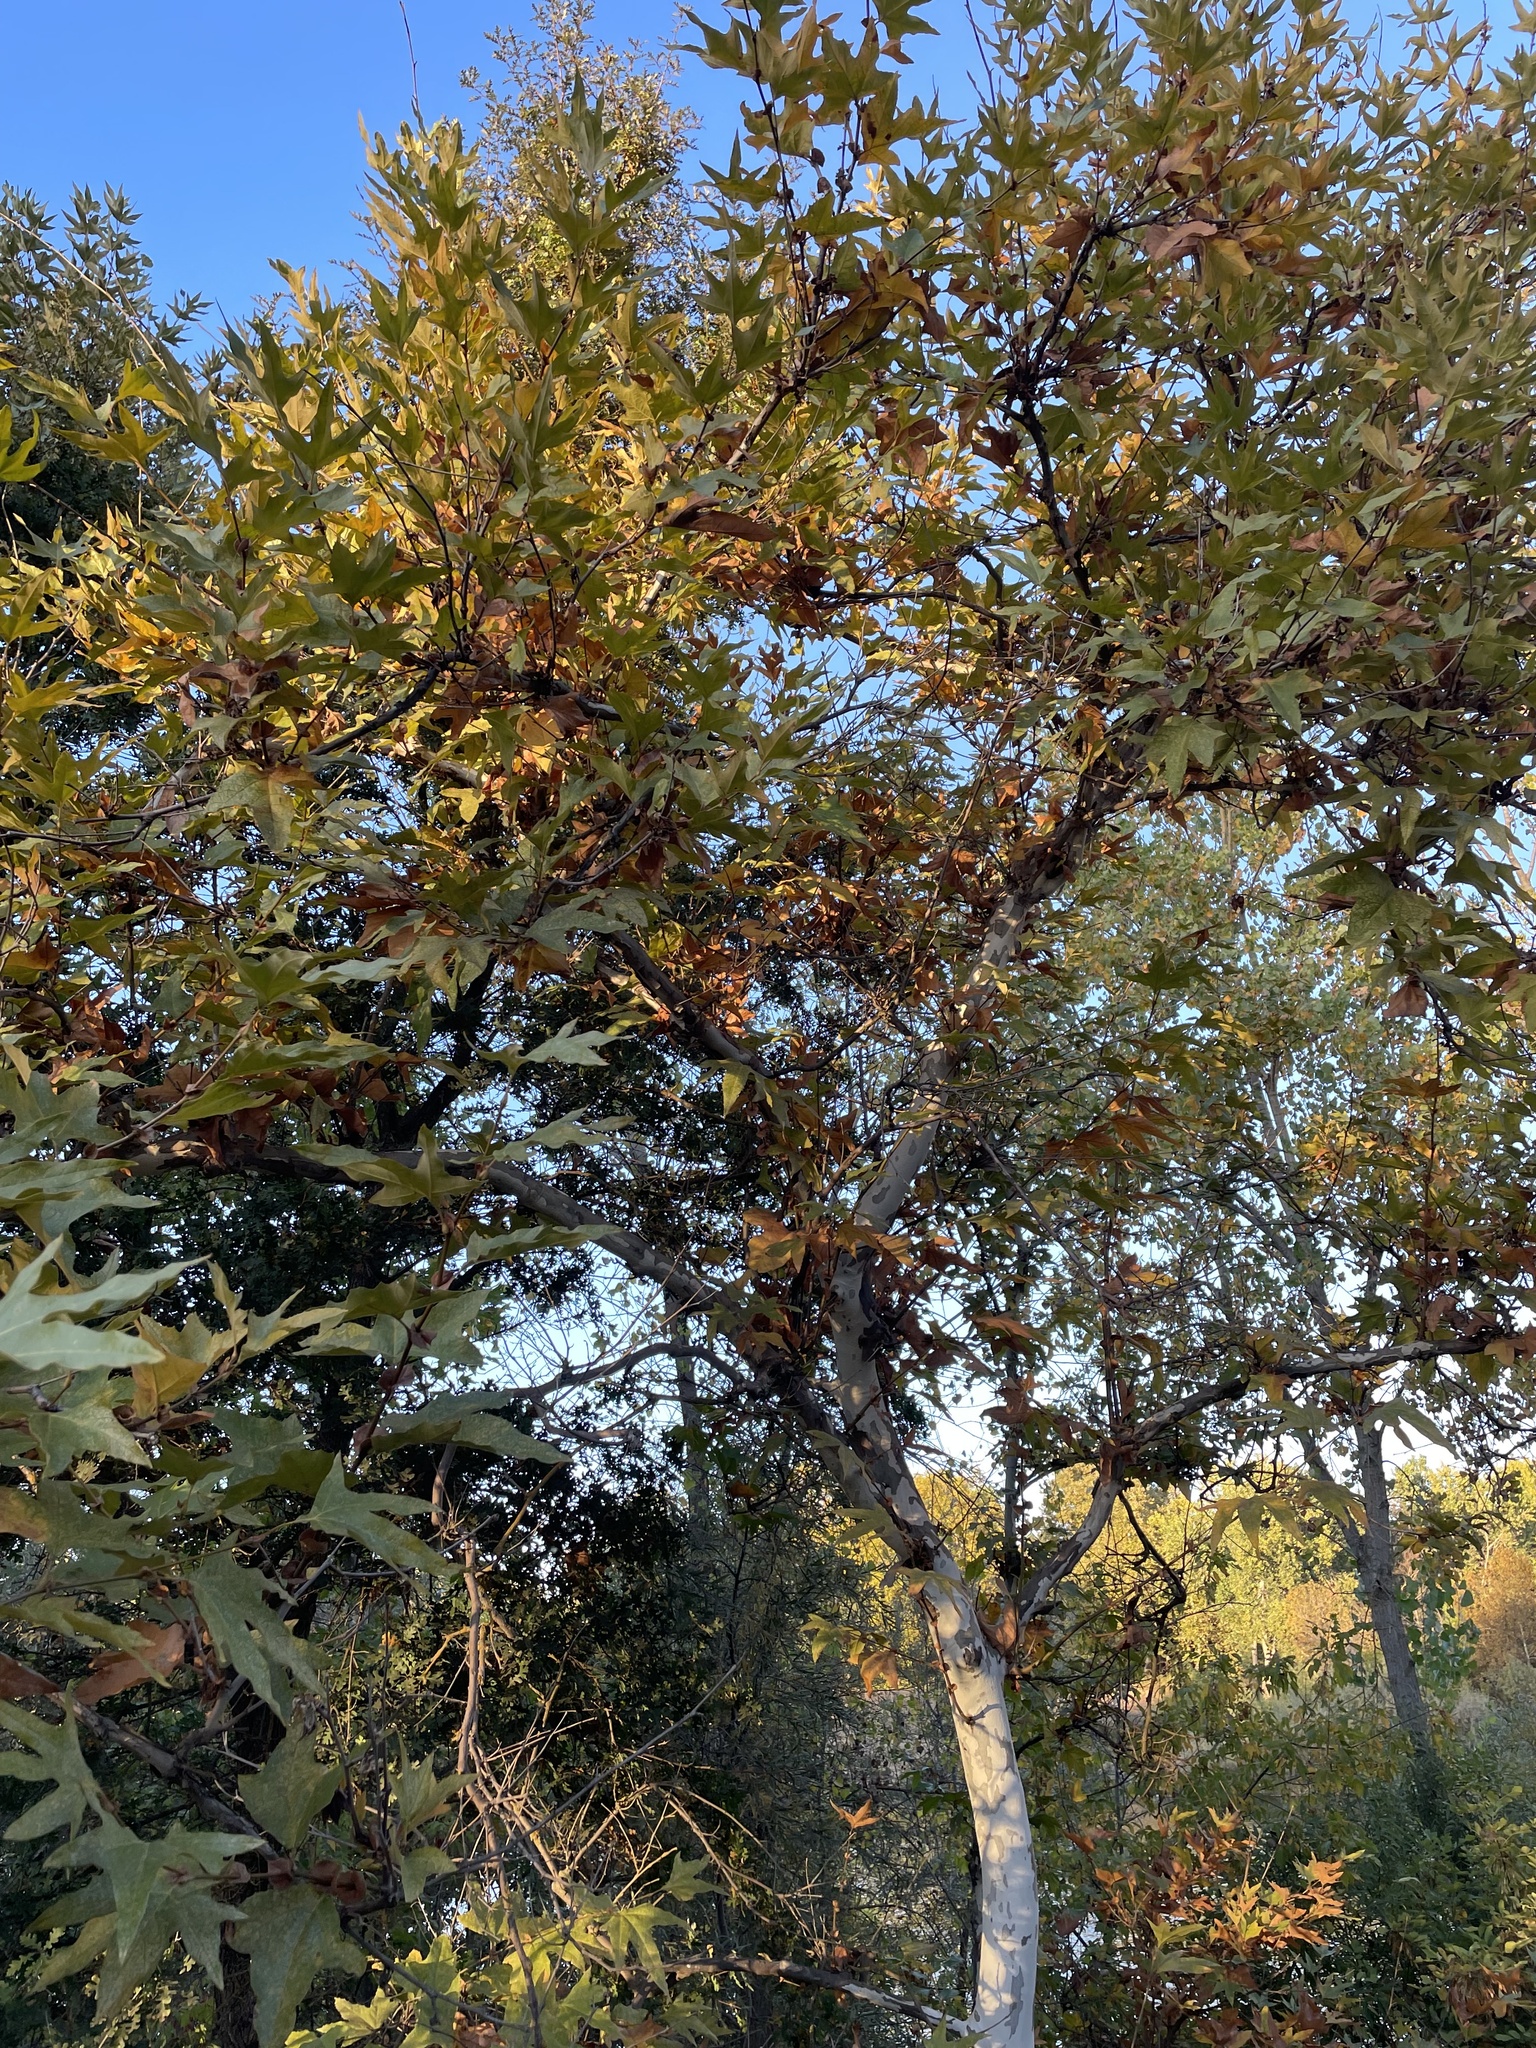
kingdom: Plantae
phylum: Tracheophyta
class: Magnoliopsida
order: Proteales
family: Platanaceae
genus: Platanus
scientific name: Platanus racemosa
